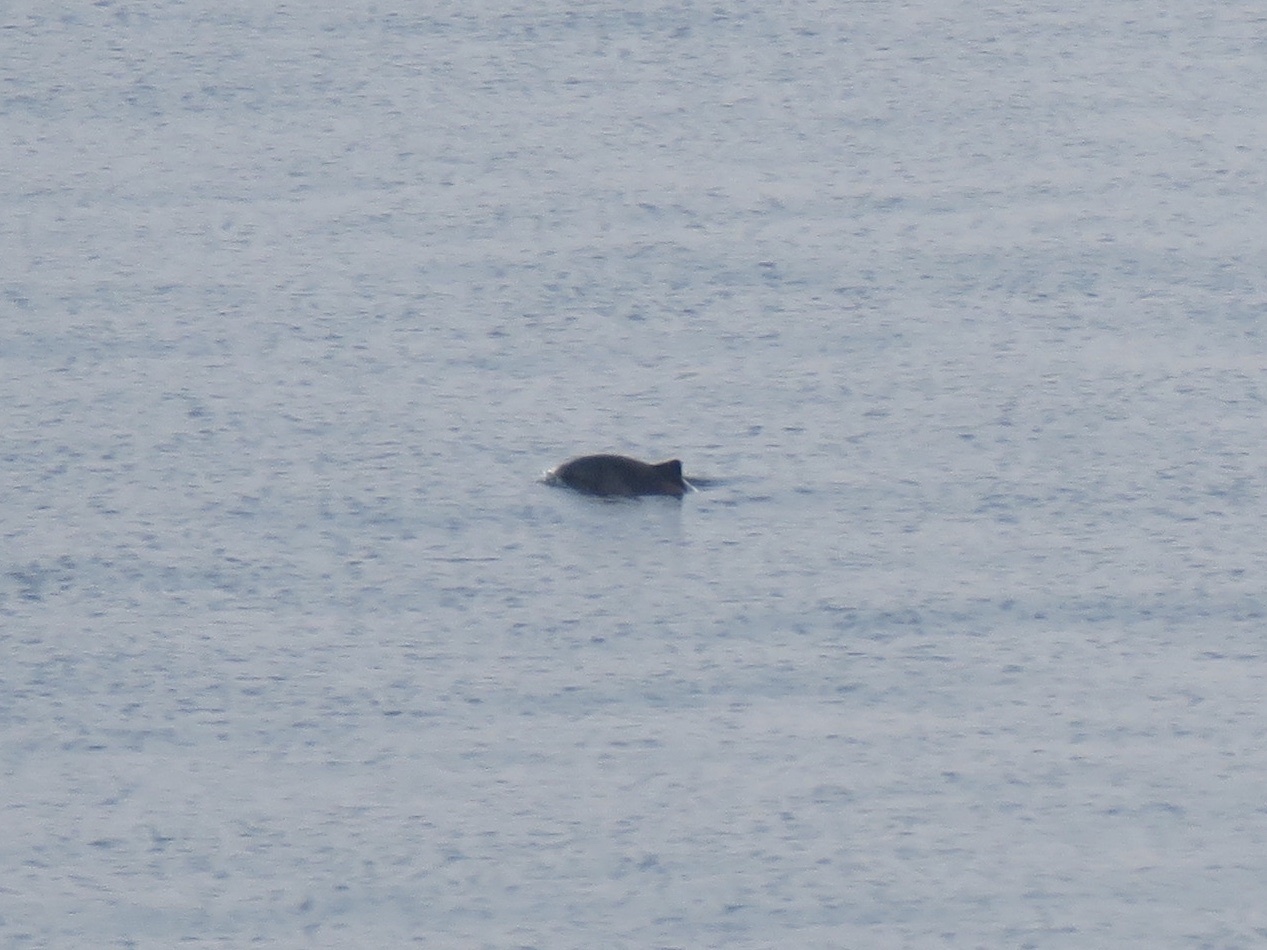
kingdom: Animalia
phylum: Chordata
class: Mammalia
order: Cetacea
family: Phocoenidae
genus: Phocoena
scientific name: Phocoena phocoena
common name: Harbor porpoise
